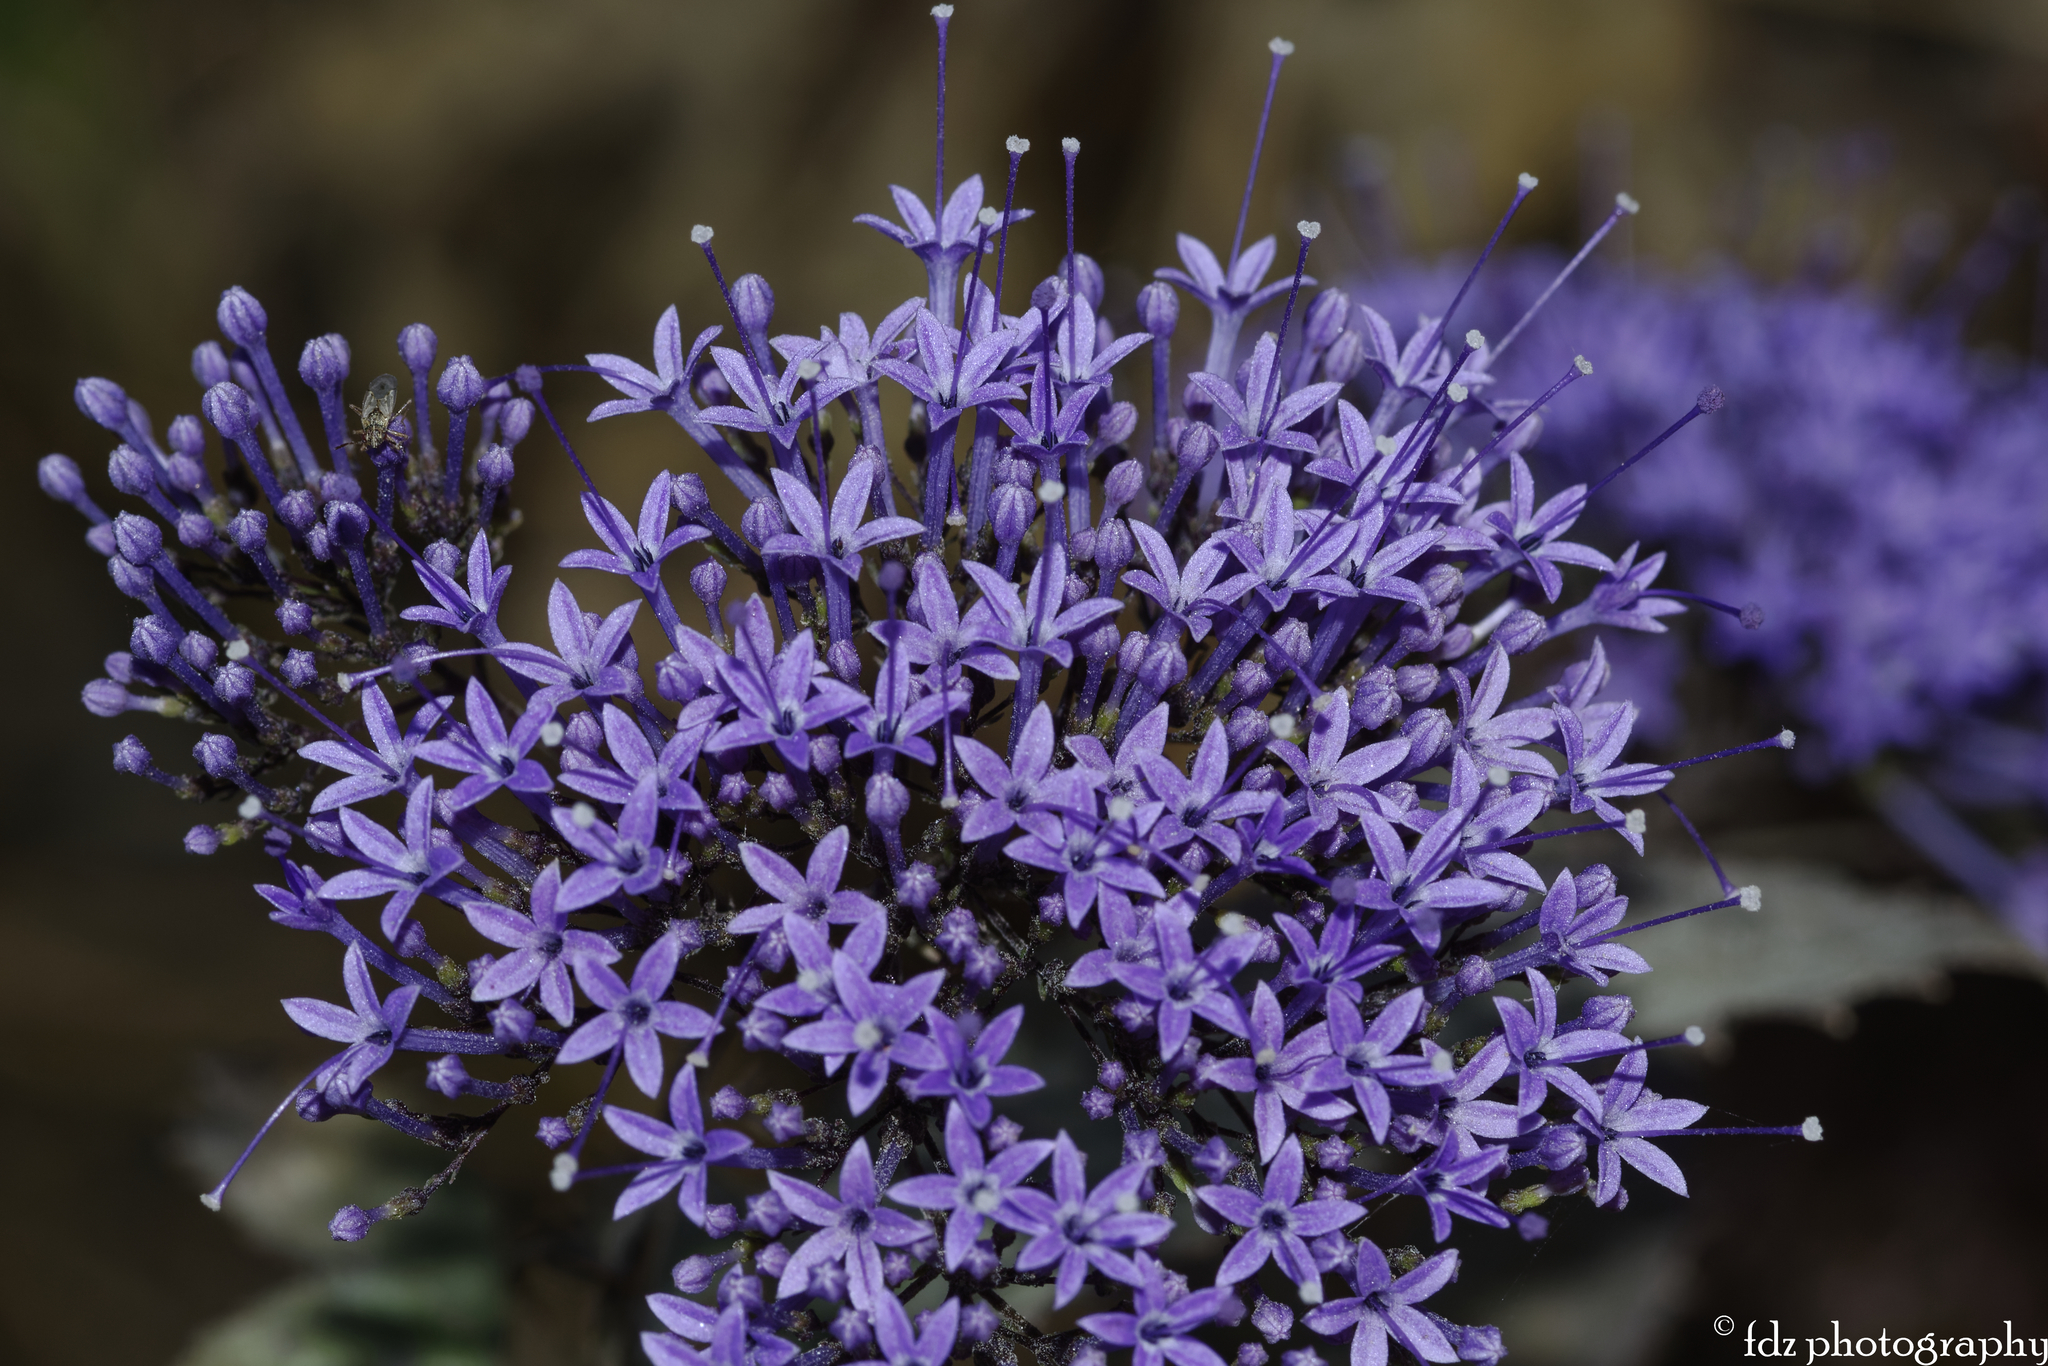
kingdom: Plantae
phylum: Tracheophyta
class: Magnoliopsida
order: Asterales
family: Campanulaceae
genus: Trachelium
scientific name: Trachelium caeruleum
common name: Throatwort
